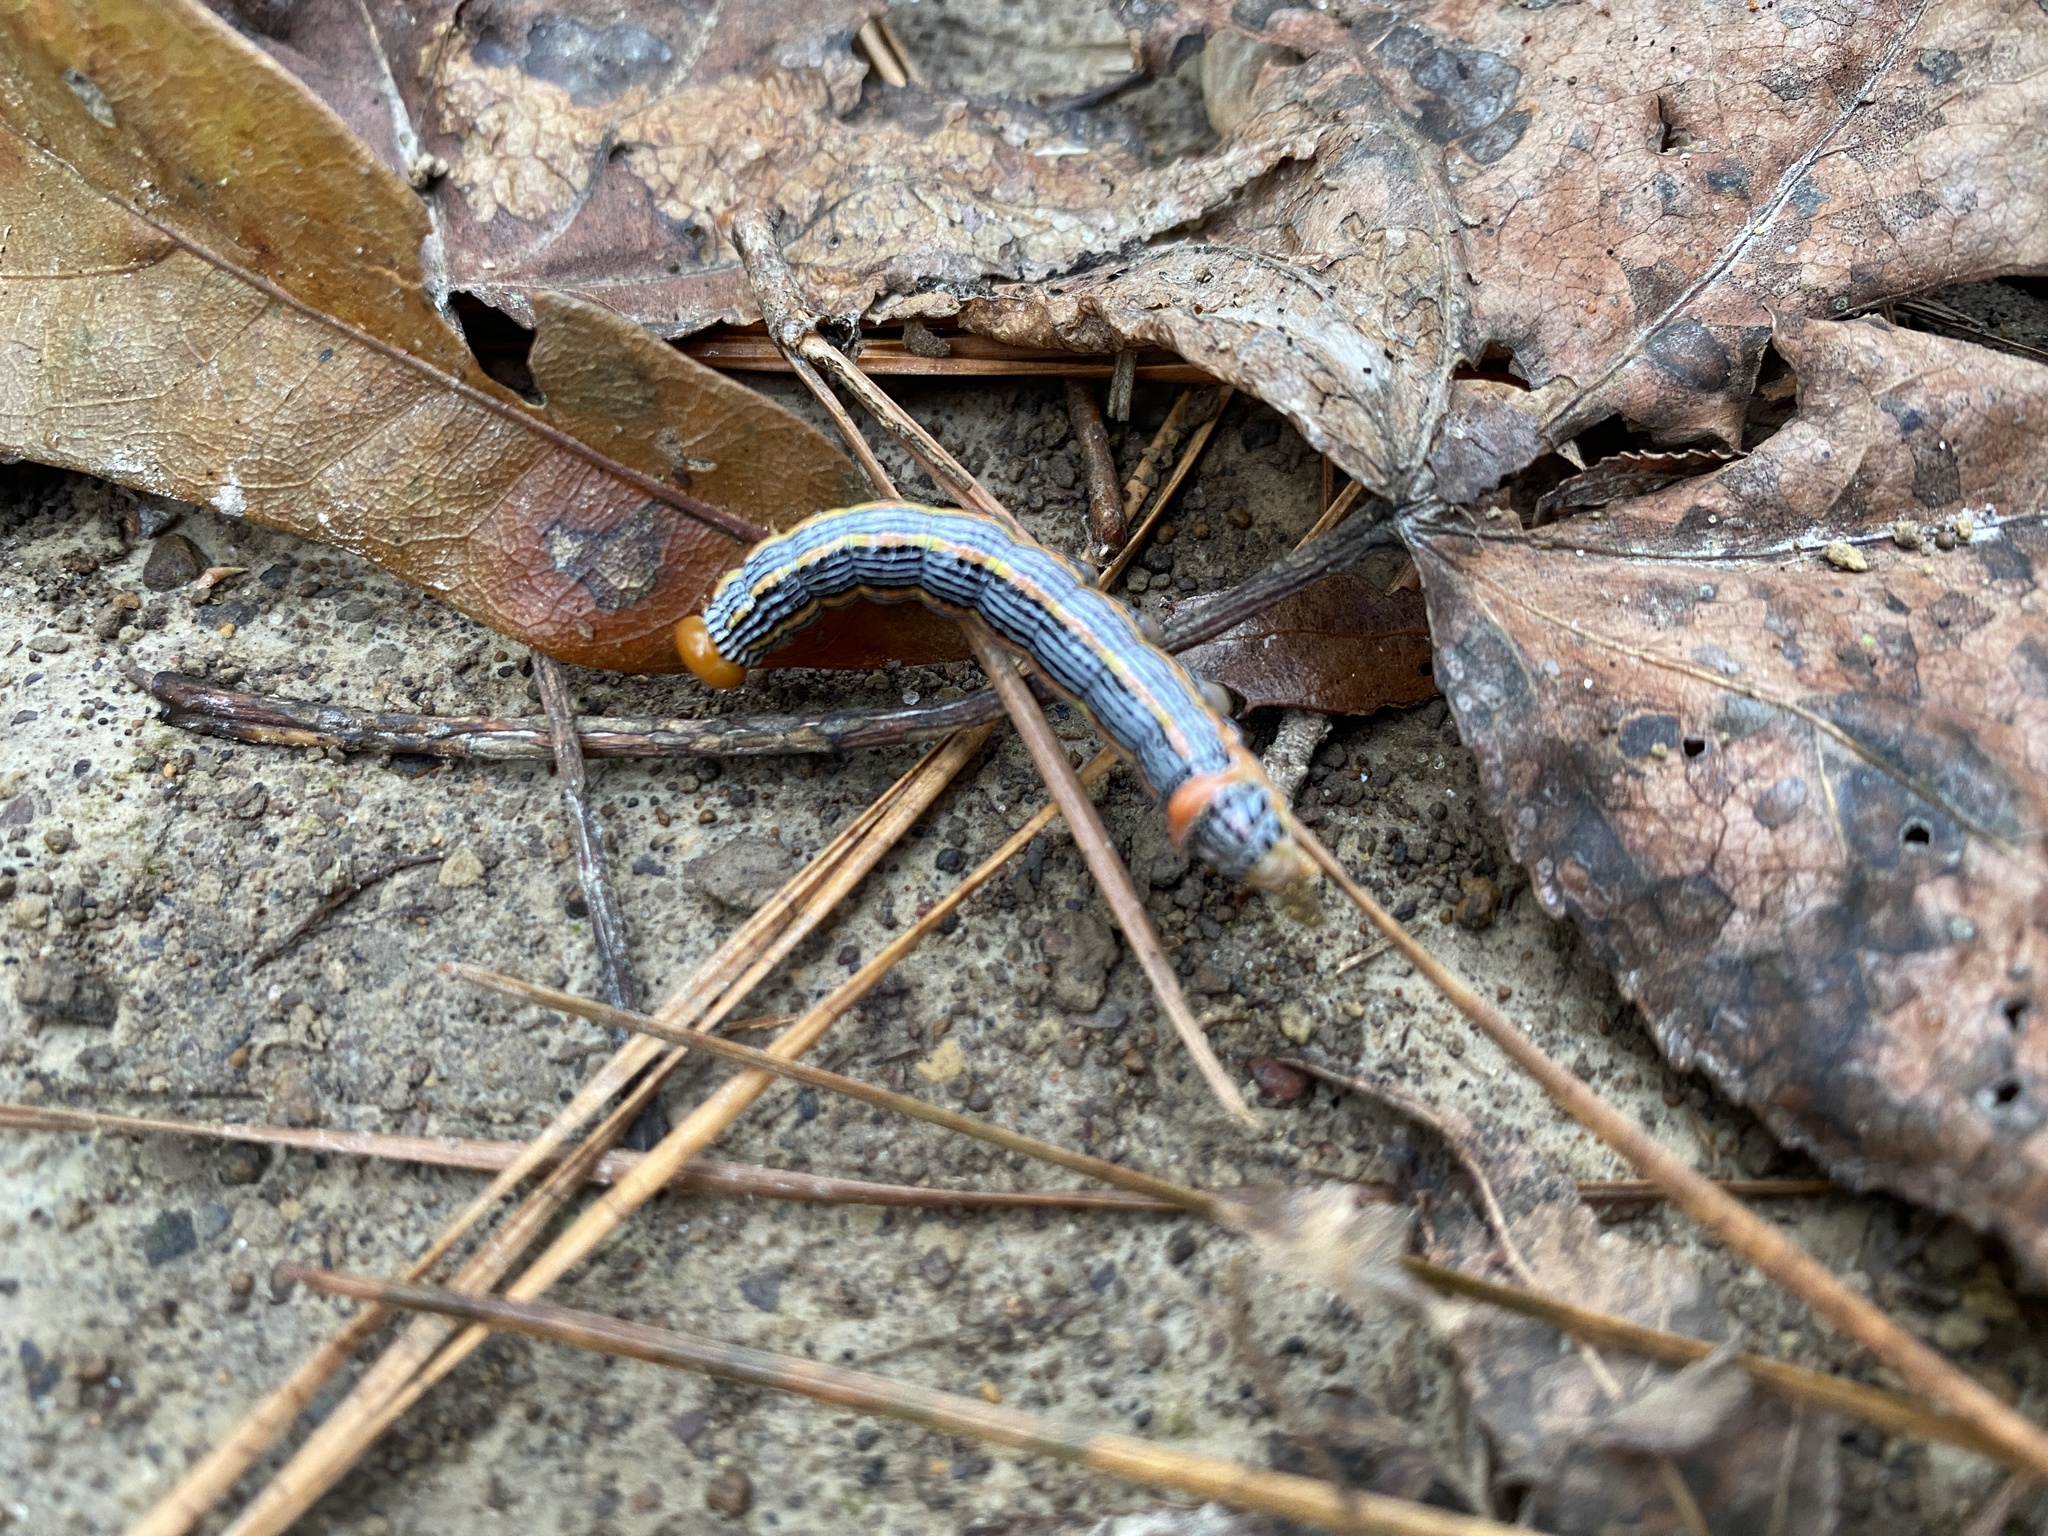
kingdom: Animalia
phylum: Arthropoda
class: Insecta
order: Lepidoptera
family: Notodontidae
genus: Symmerista
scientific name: Symmerista albifrons
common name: White-headed prominent
